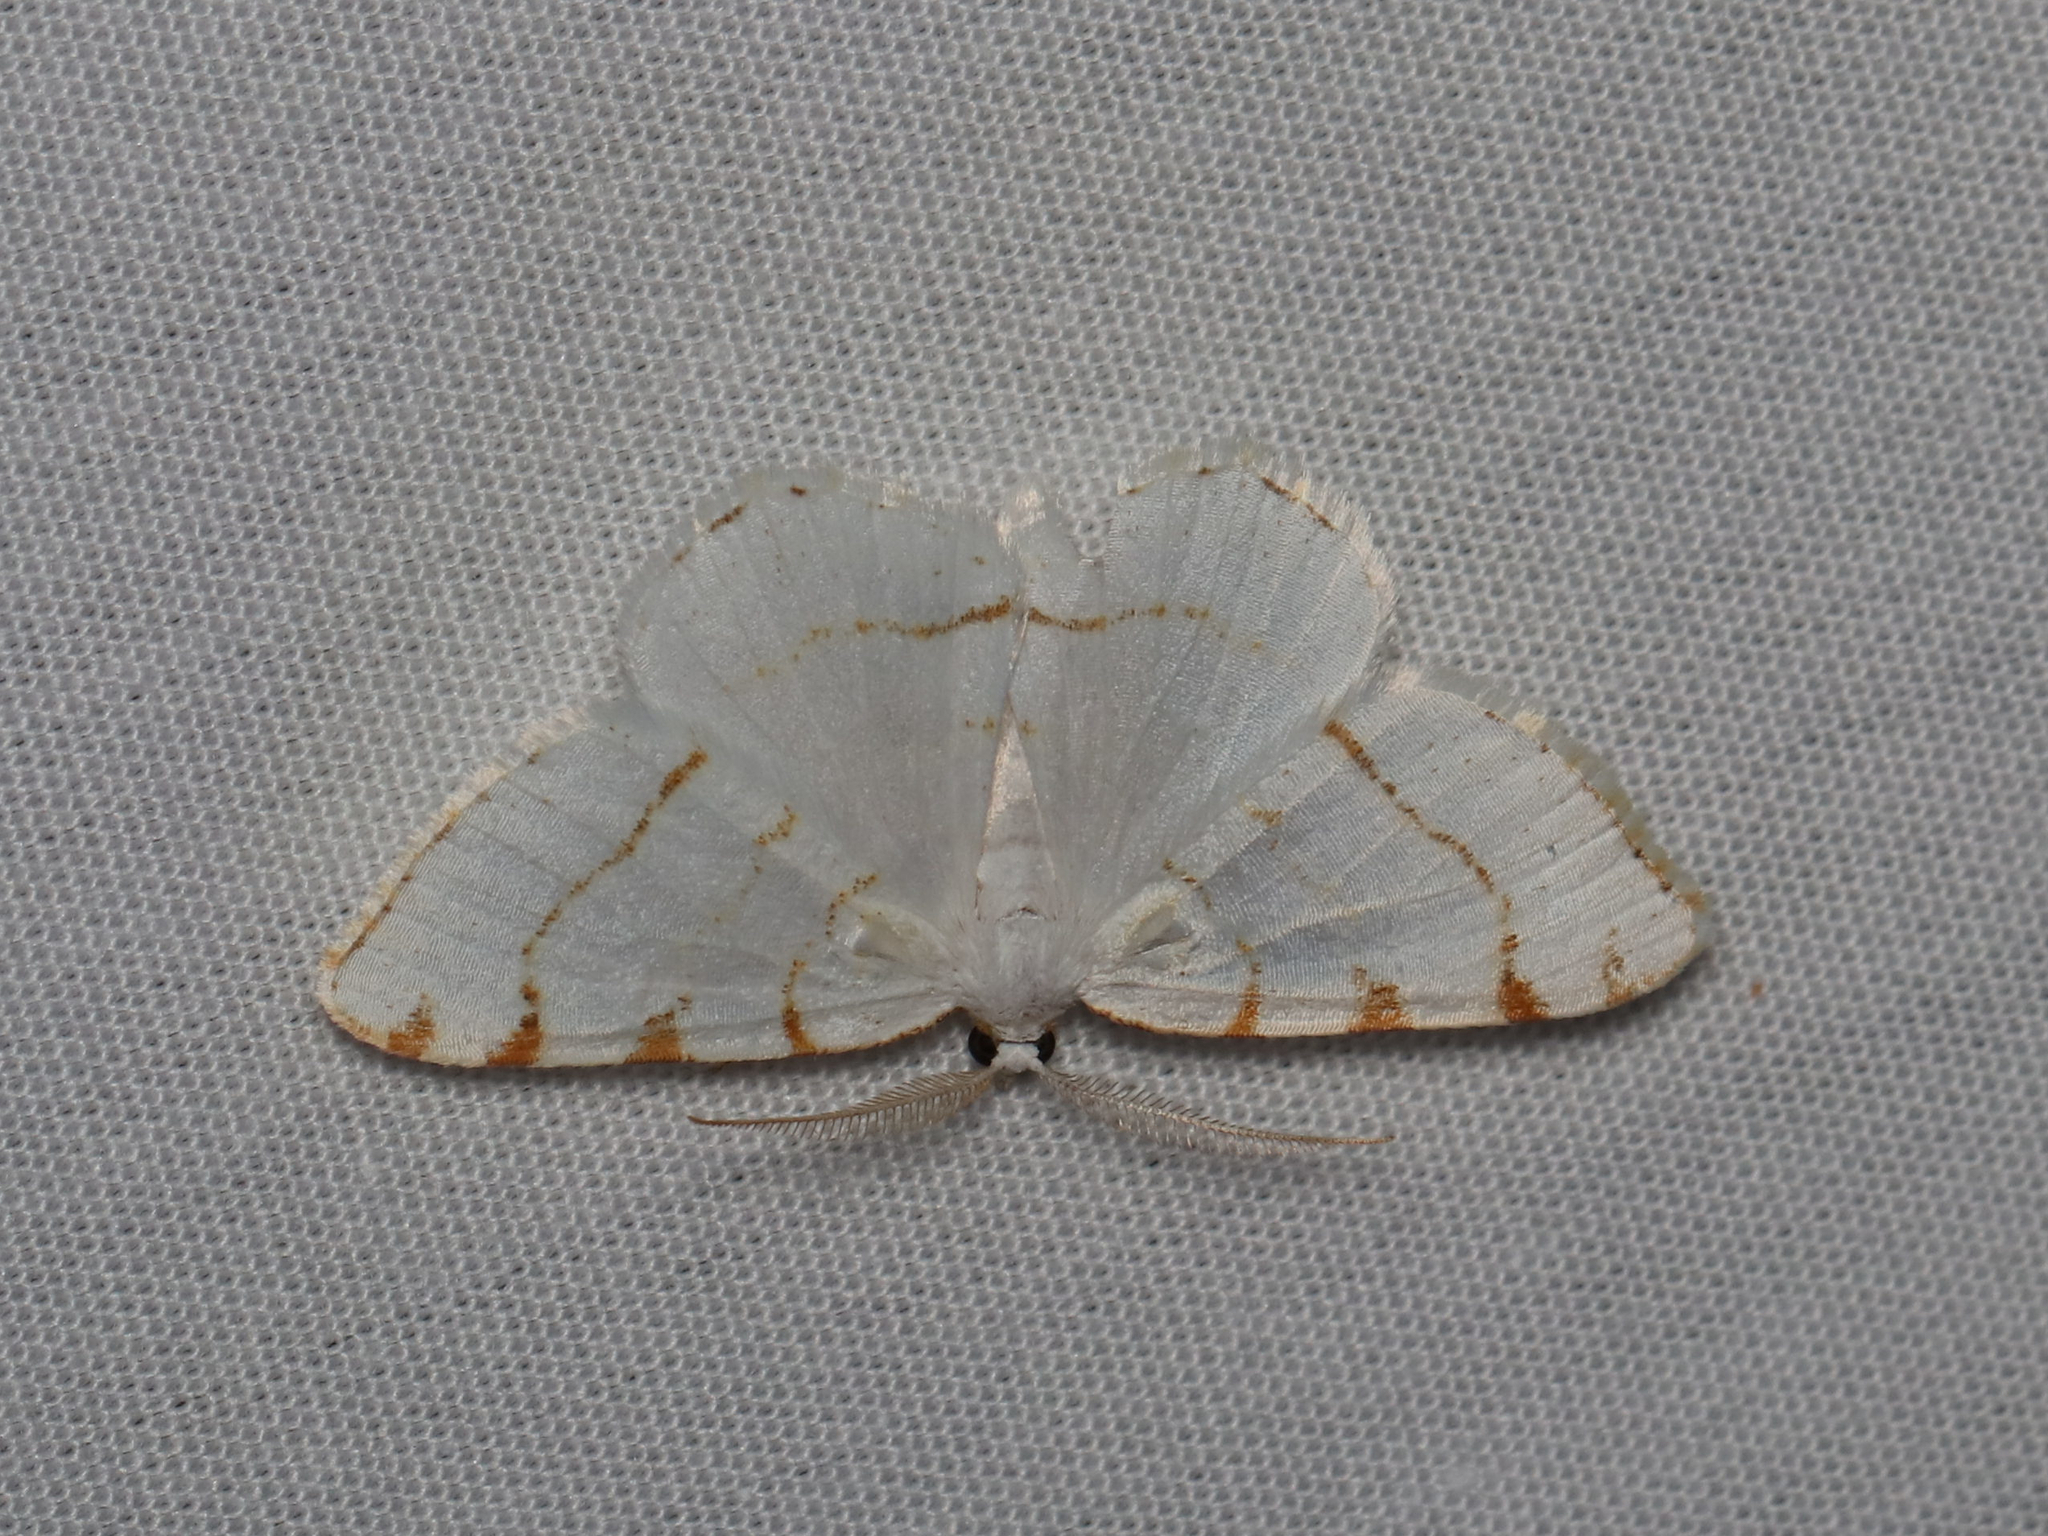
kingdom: Animalia
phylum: Arthropoda
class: Insecta
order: Lepidoptera
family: Geometridae
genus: Macaria
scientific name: Macaria pustularia
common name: Lesser maple spanworm moth
